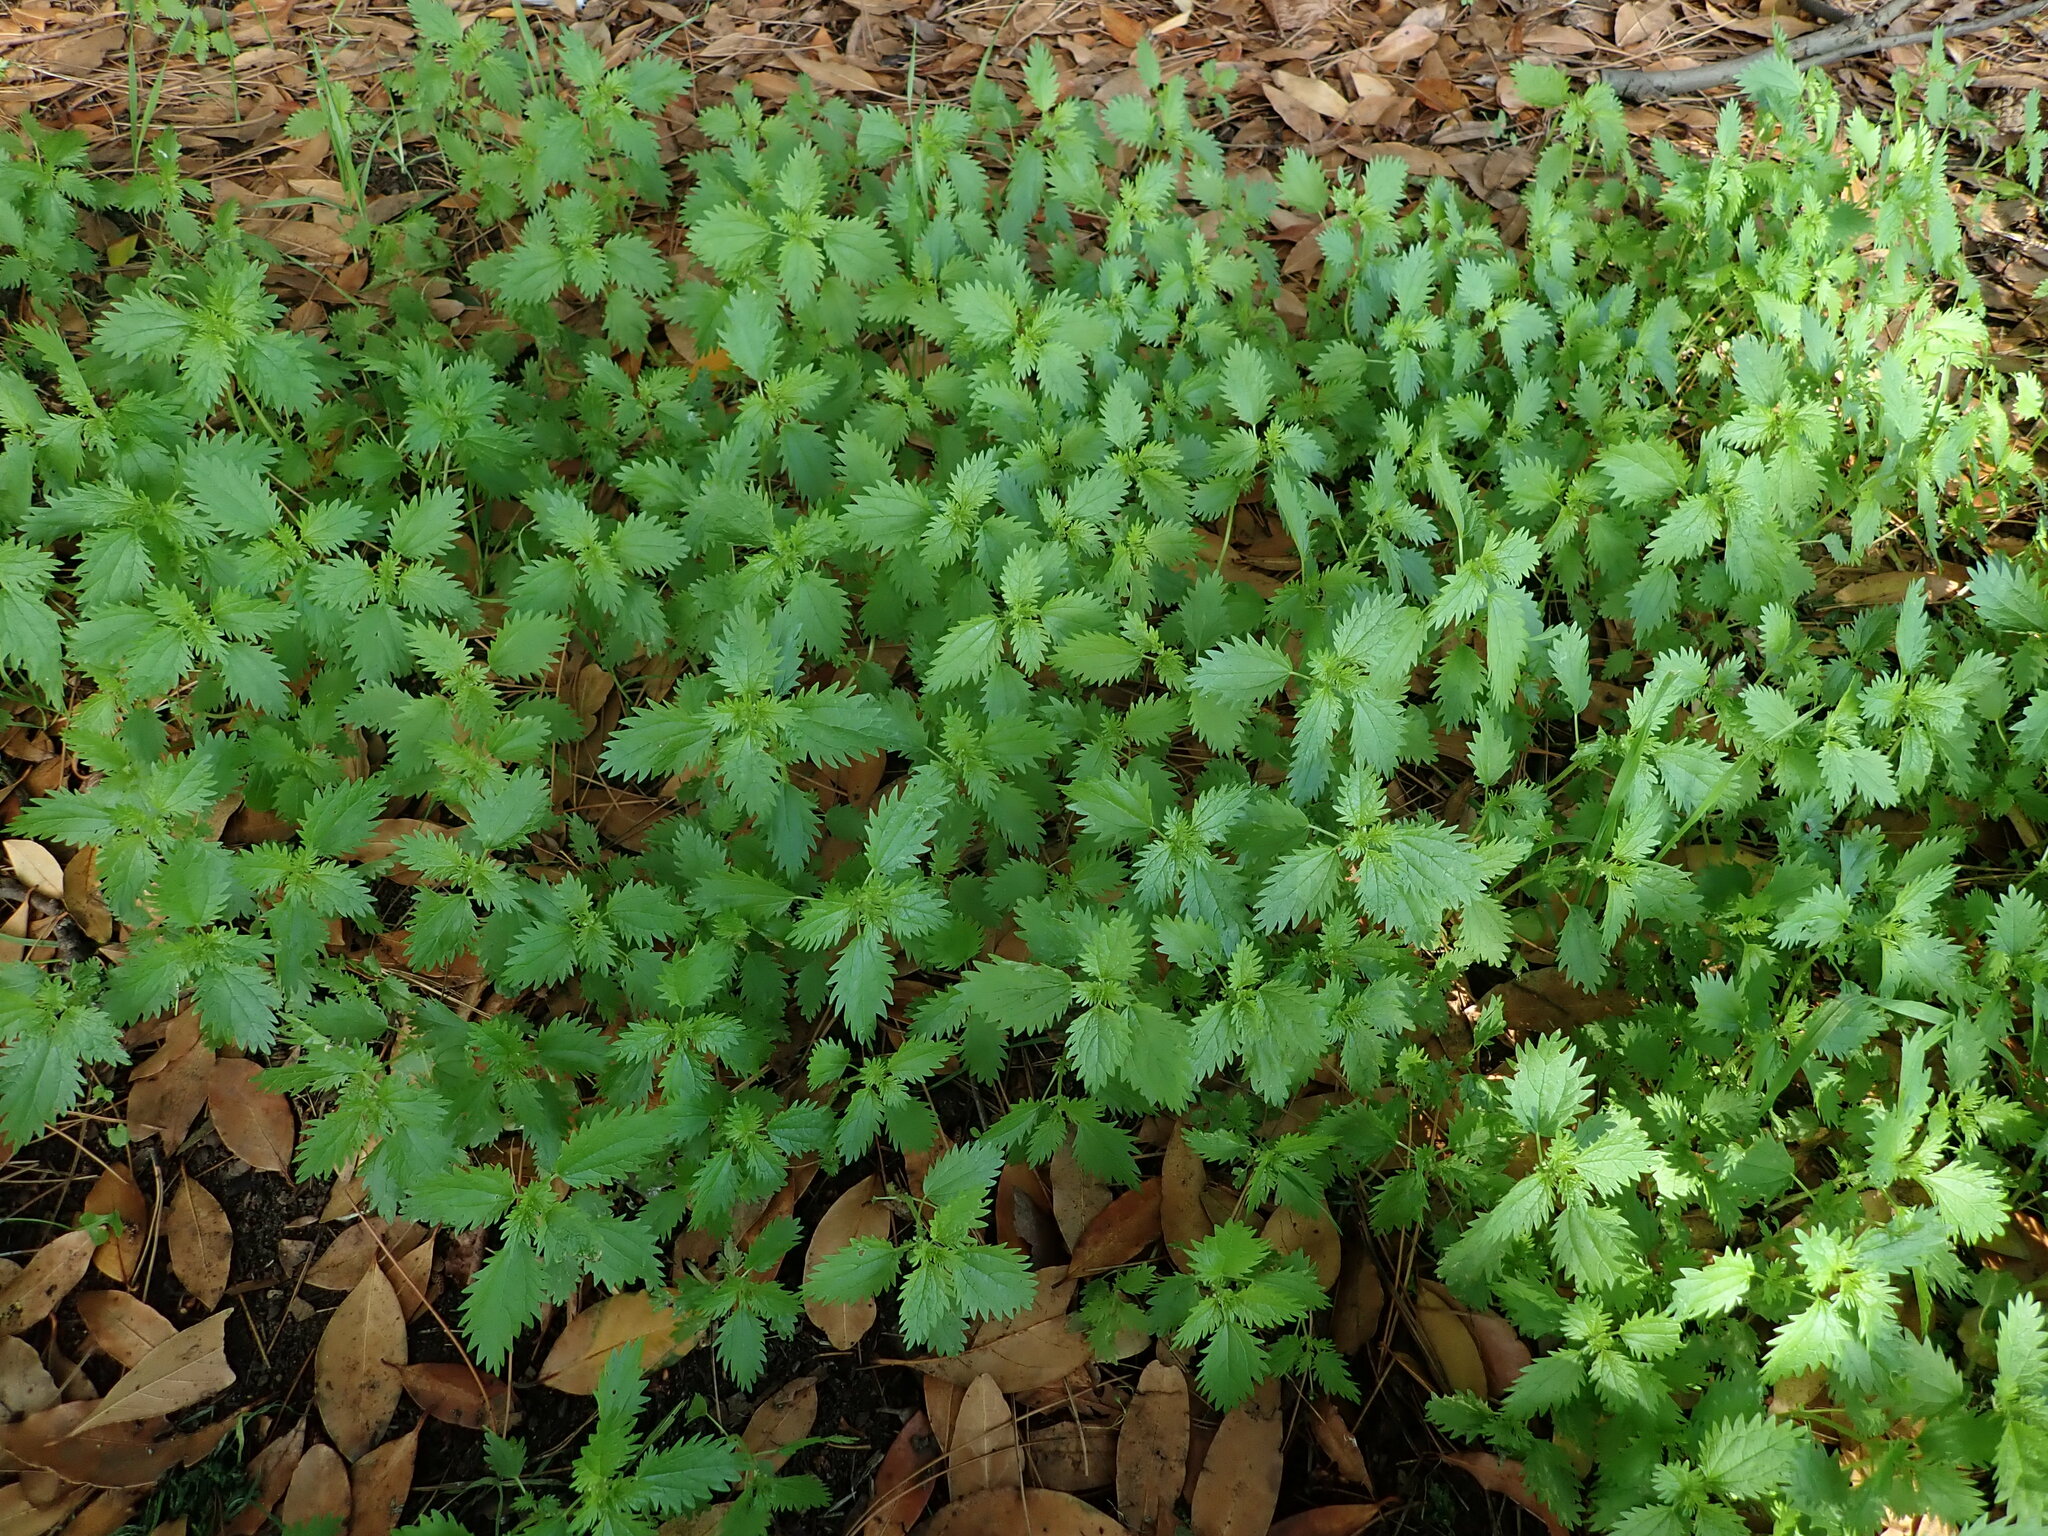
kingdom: Plantae
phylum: Tracheophyta
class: Magnoliopsida
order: Rosales
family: Urticaceae
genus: Urtica
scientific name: Urtica urens
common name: Dwarf nettle
